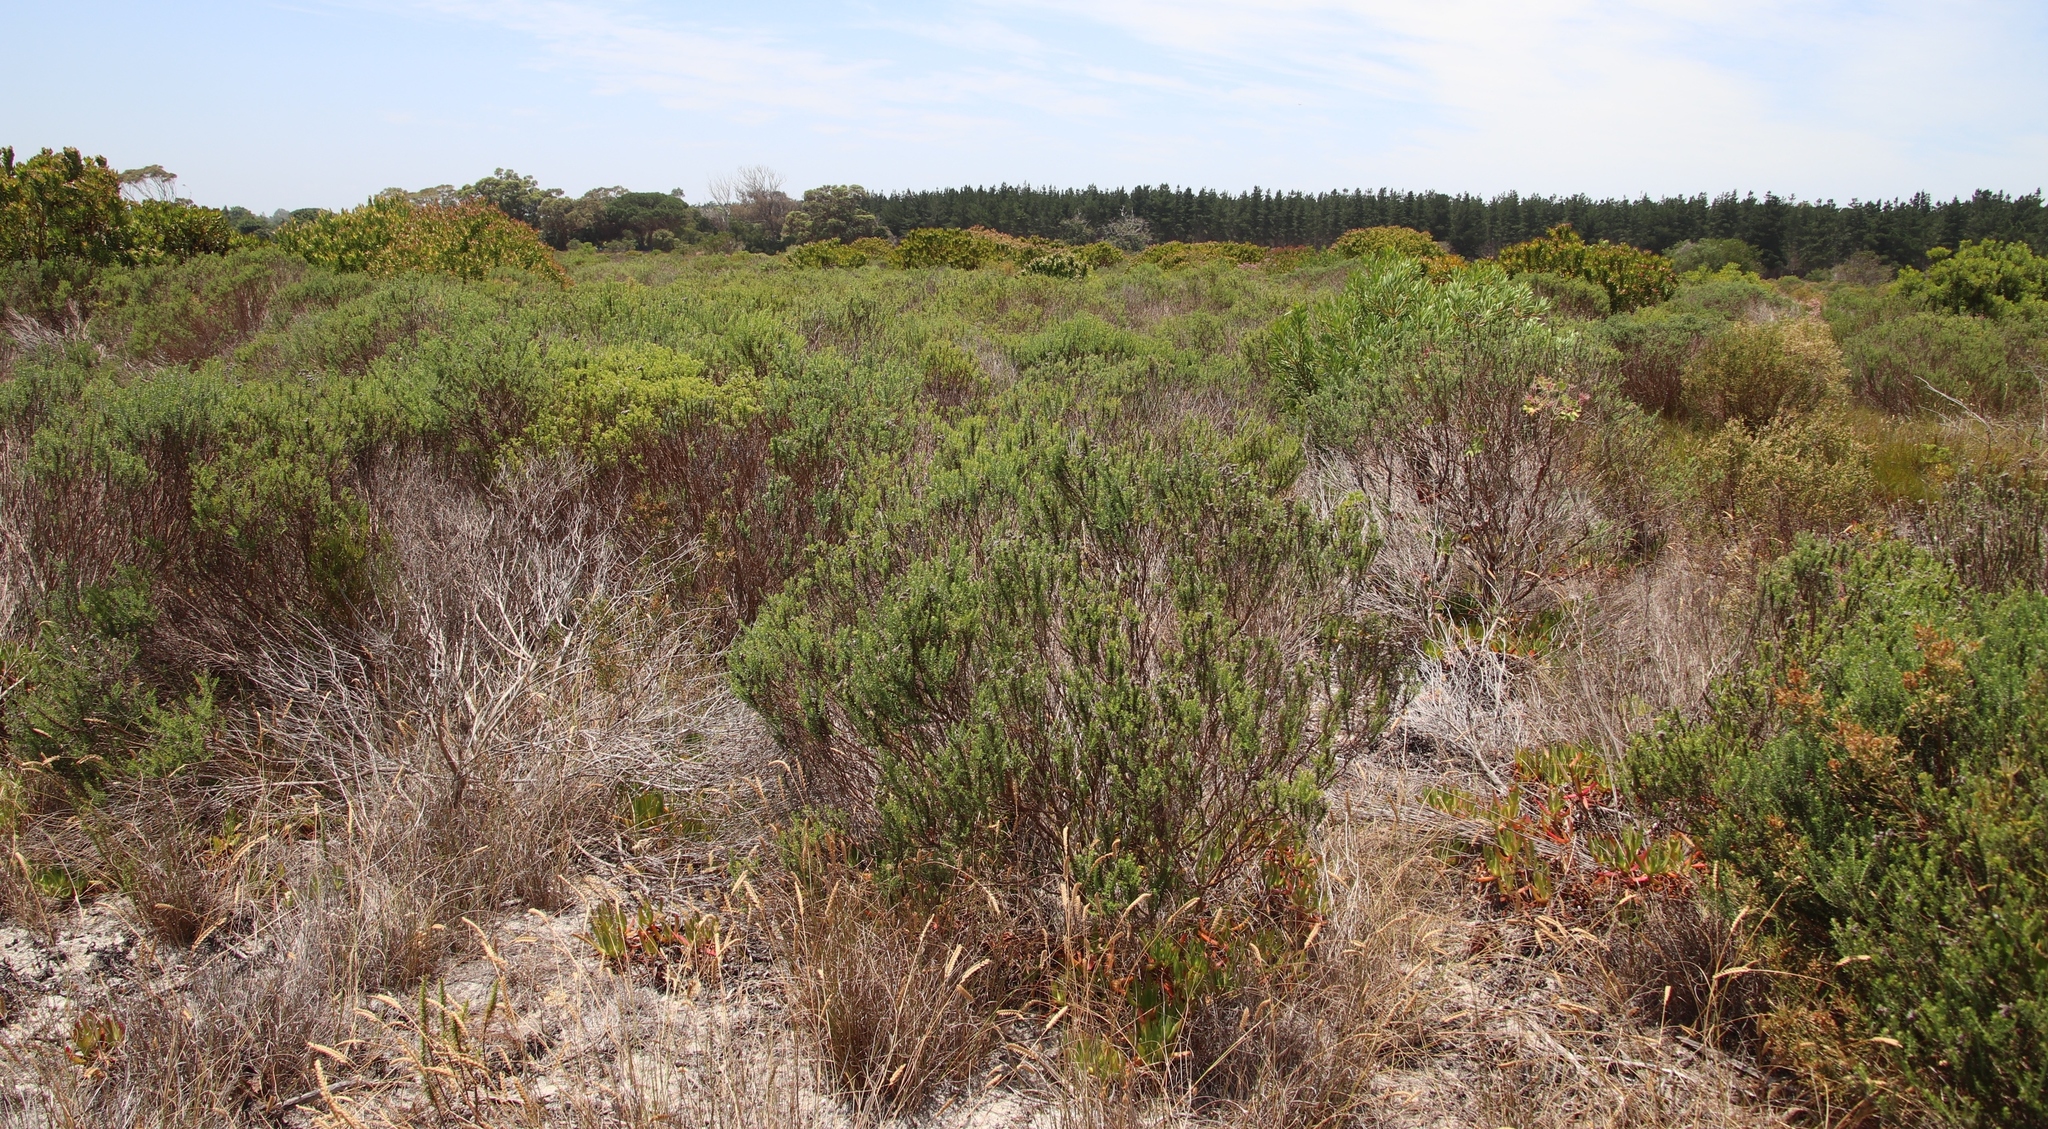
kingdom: Plantae
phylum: Tracheophyta
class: Magnoliopsida
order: Asterales
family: Asteraceae
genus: Metalasia
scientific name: Metalasia densa
